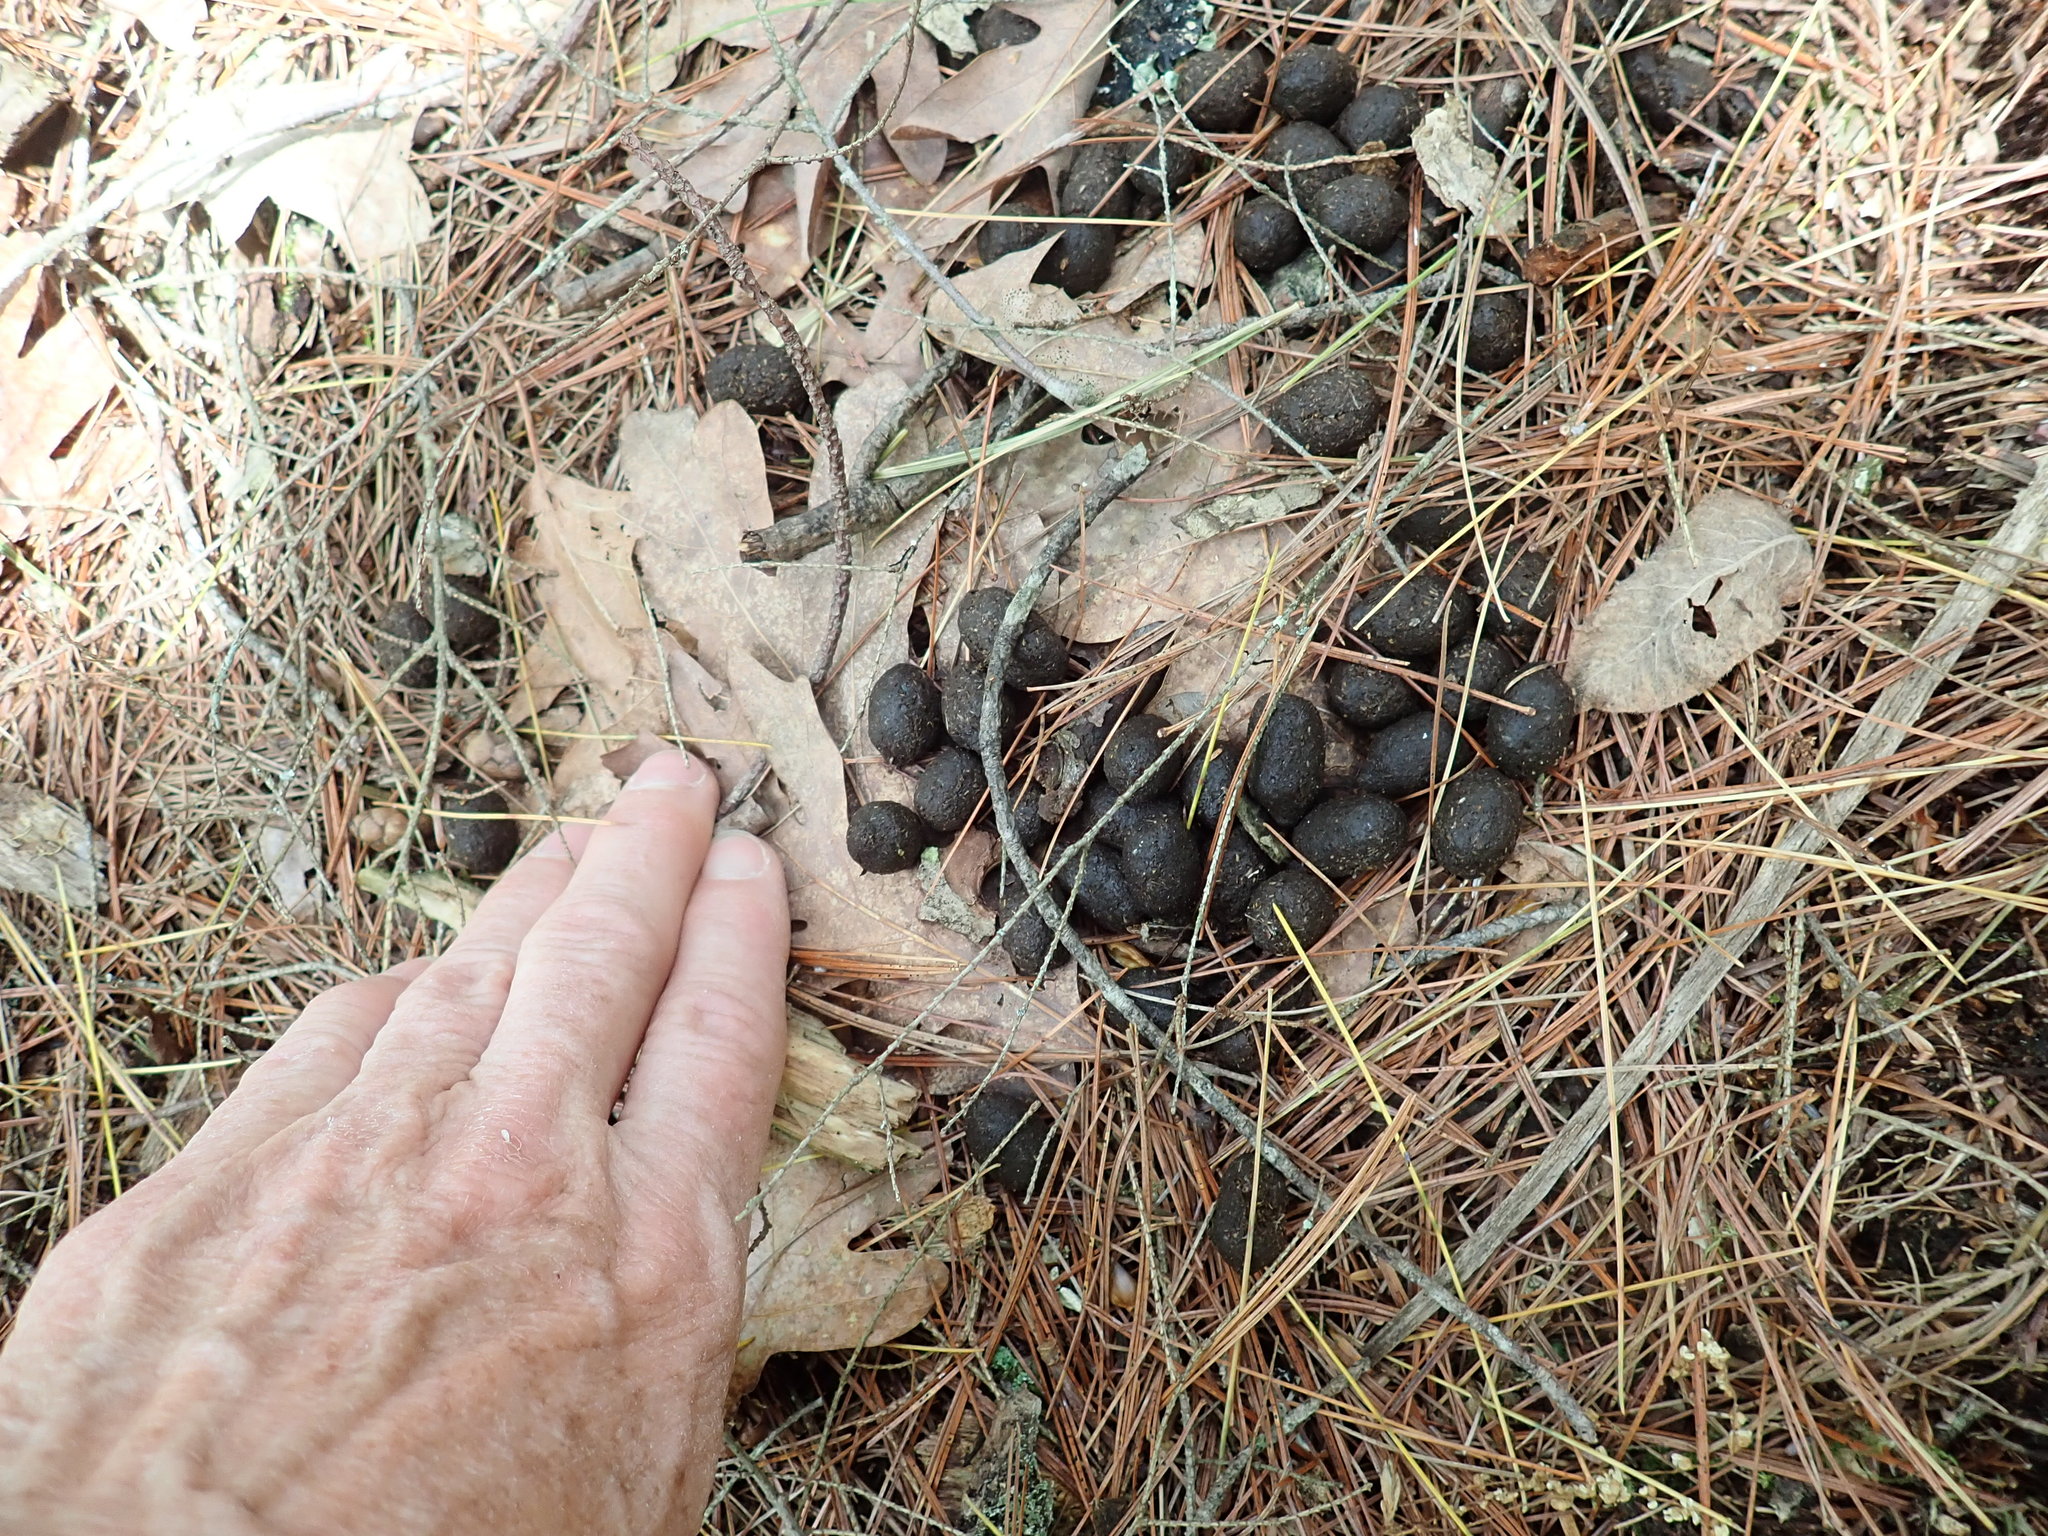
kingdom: Animalia
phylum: Chordata
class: Mammalia
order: Artiodactyla
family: Cervidae
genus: Odocoileus
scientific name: Odocoileus virginianus
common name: White-tailed deer
